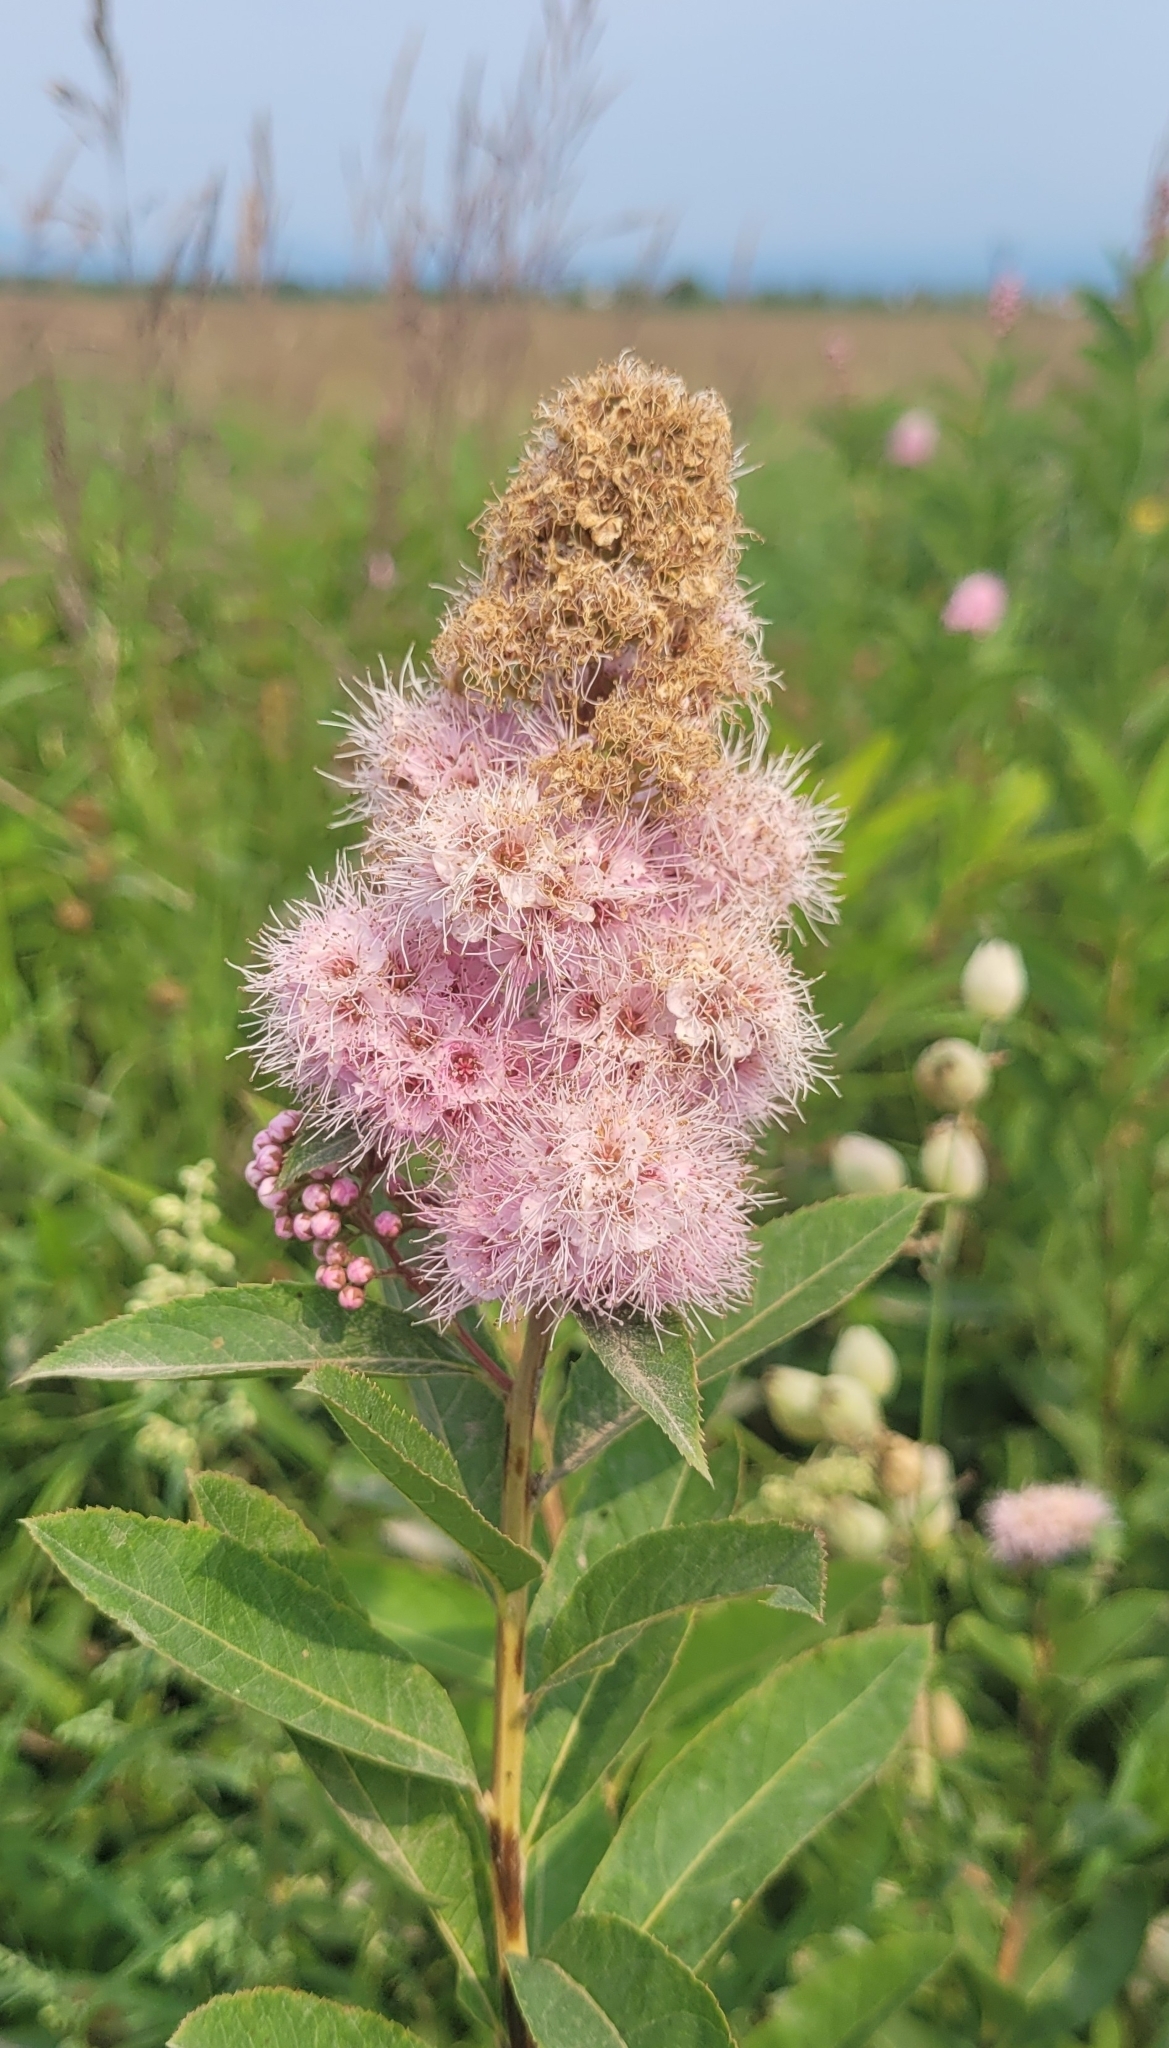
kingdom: Plantae
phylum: Tracheophyta
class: Magnoliopsida
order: Rosales
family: Rosaceae
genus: Spiraea
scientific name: Spiraea salicifolia
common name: Bridewort
